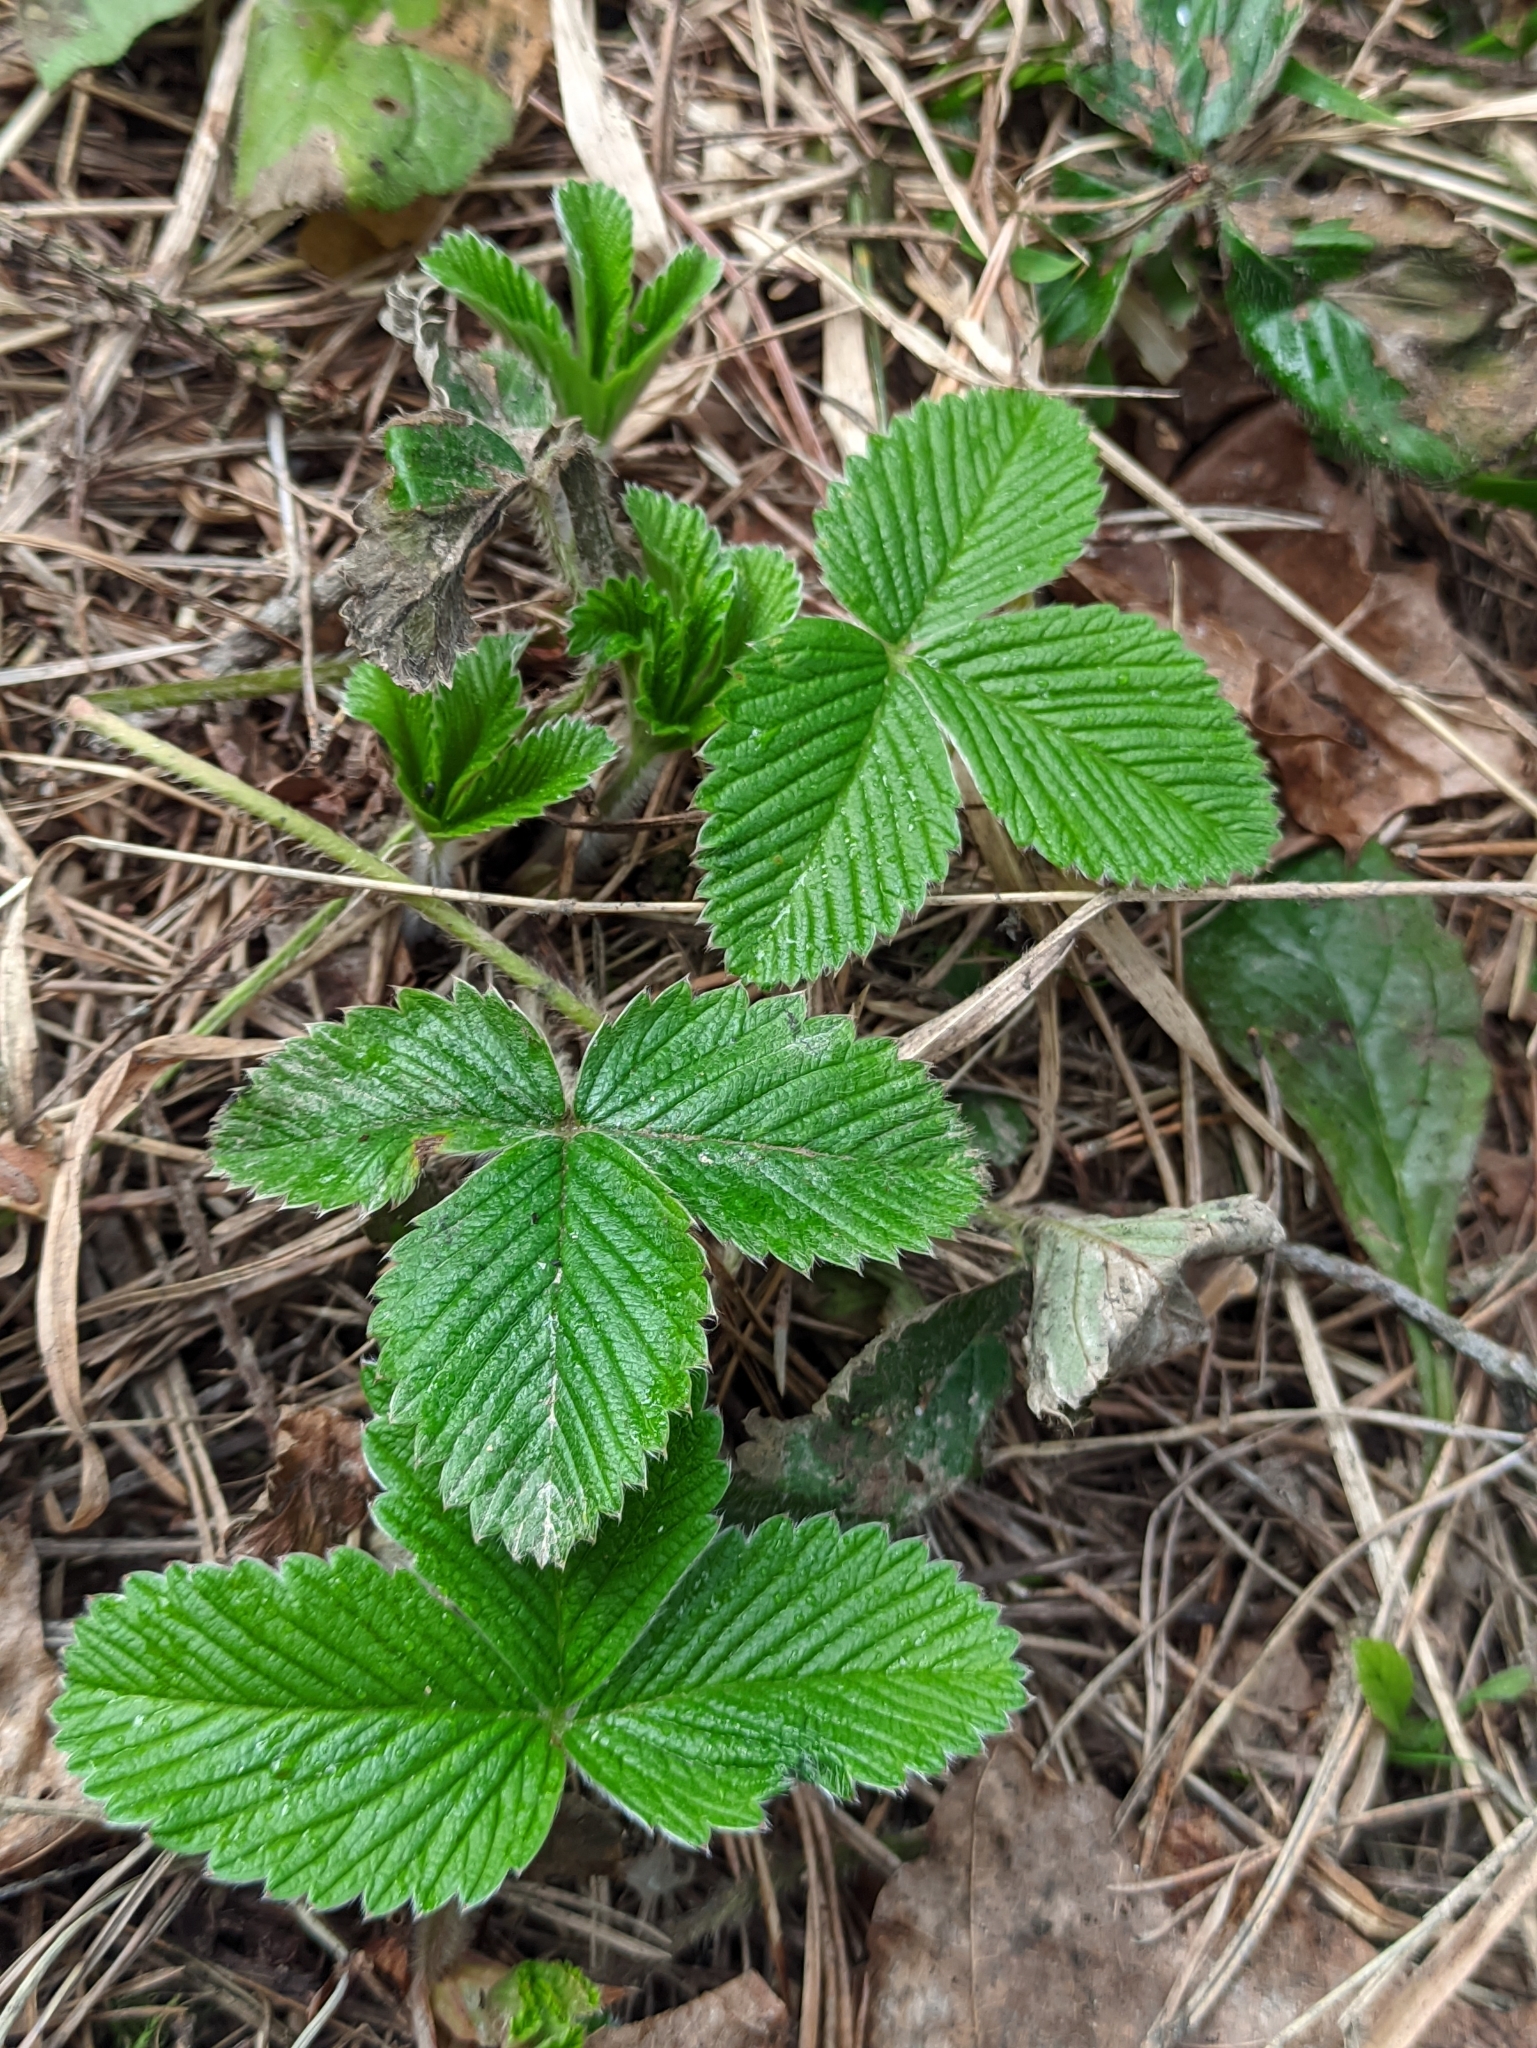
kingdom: Plantae
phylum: Tracheophyta
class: Magnoliopsida
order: Rosales
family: Rosaceae
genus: Fragaria
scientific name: Fragaria moschata
